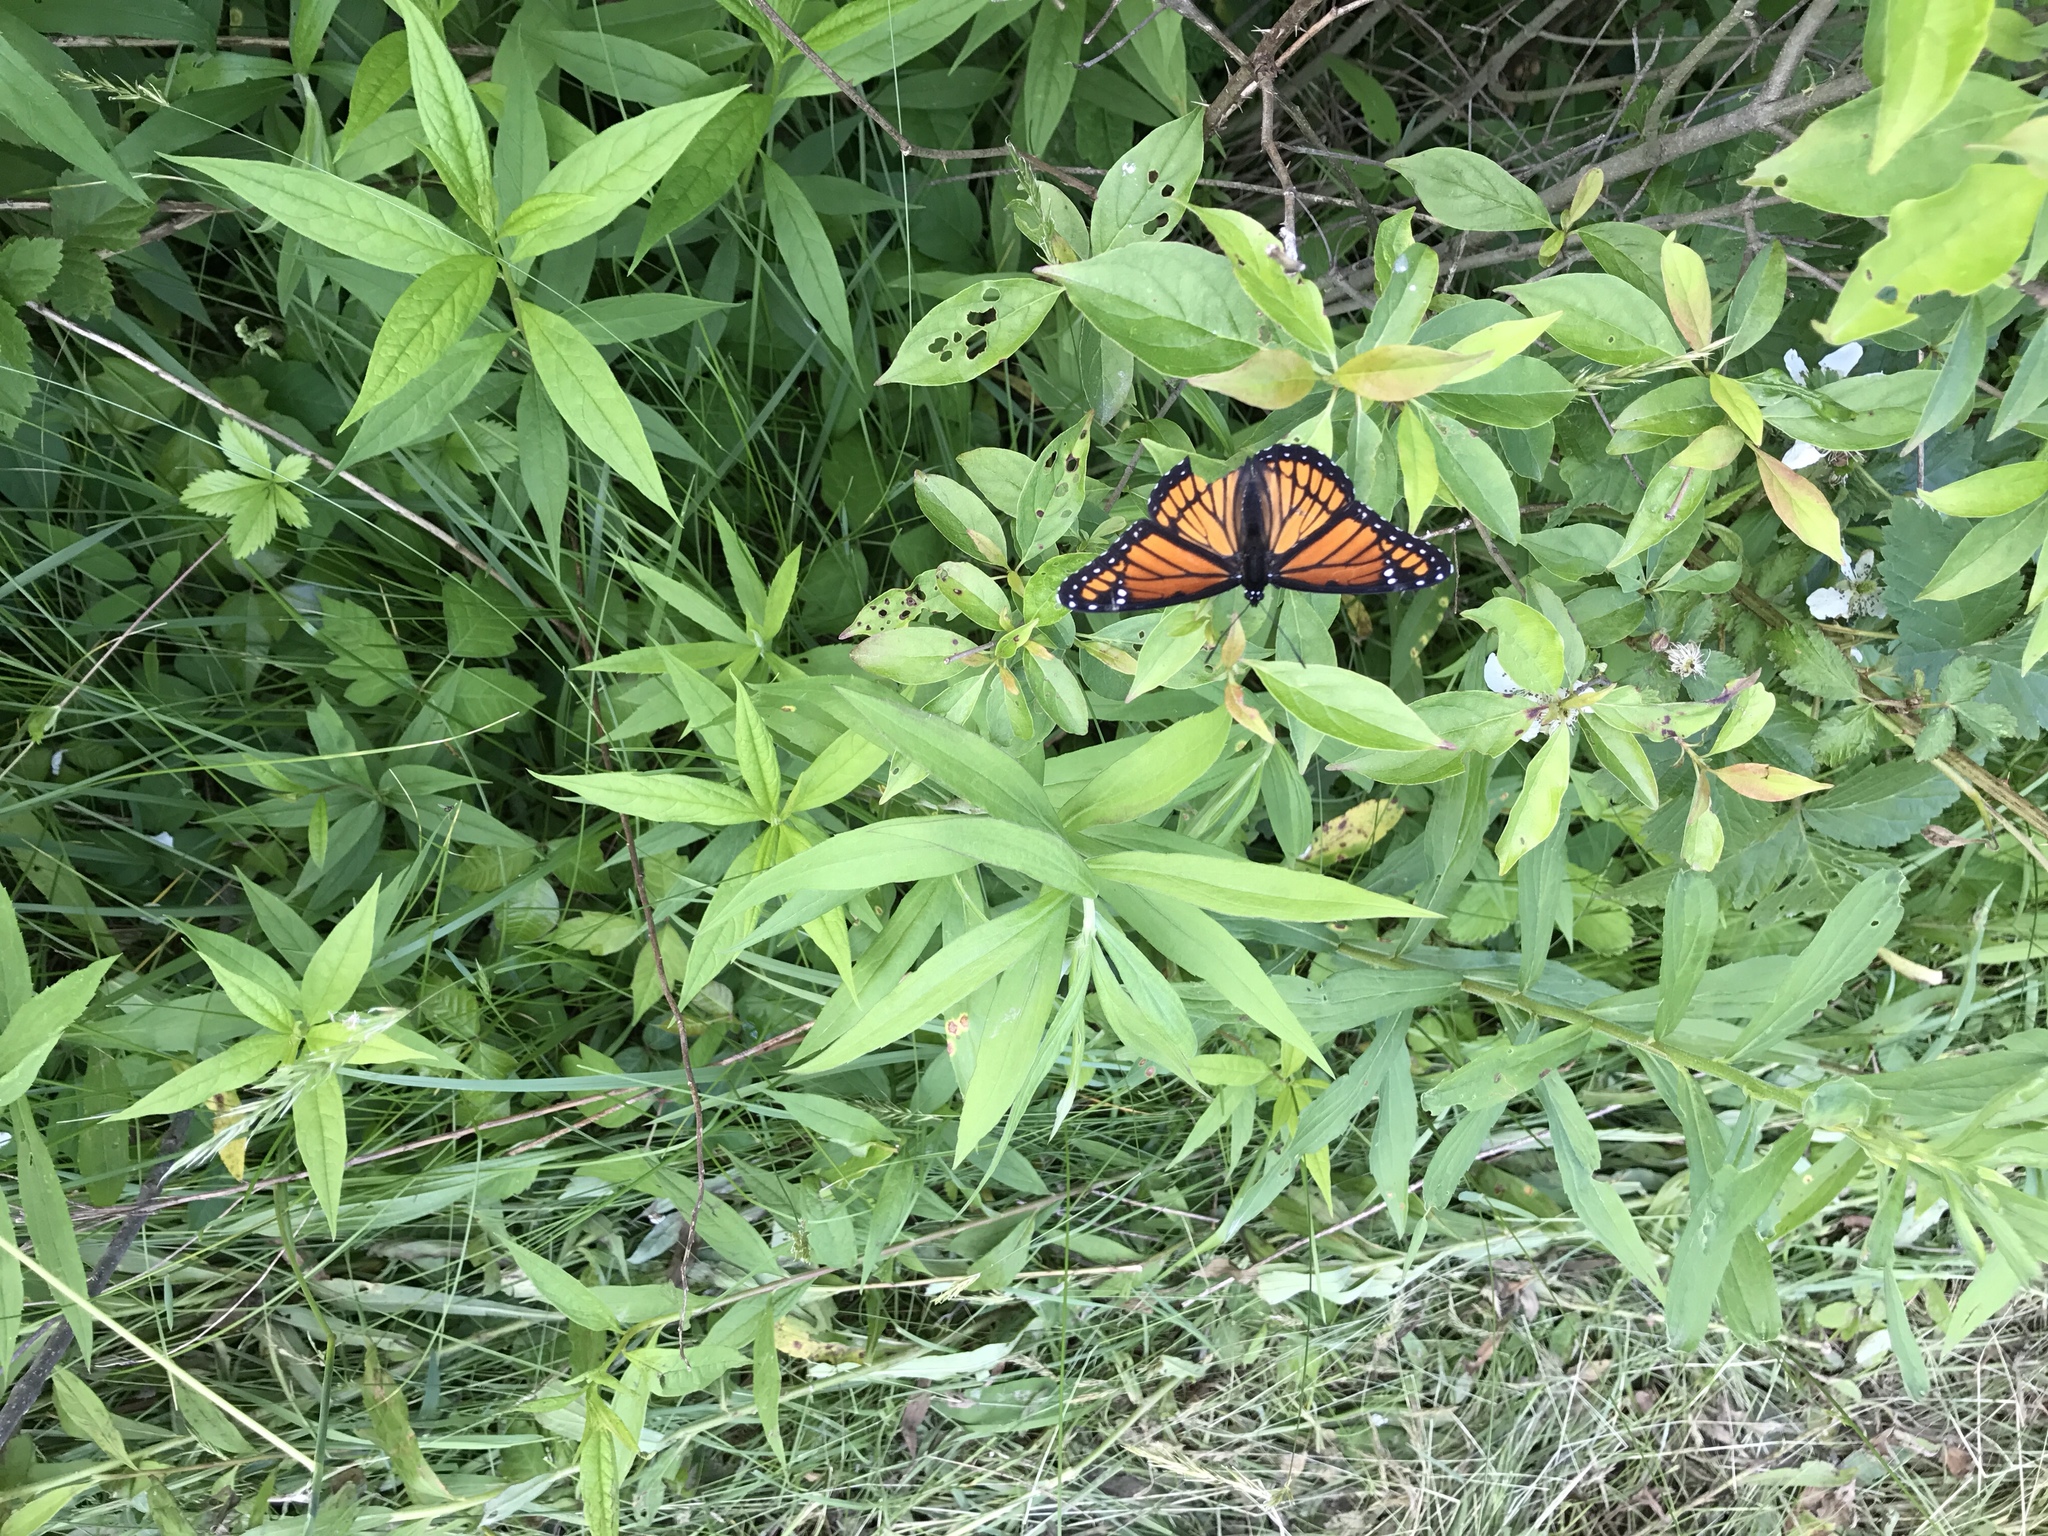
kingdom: Animalia
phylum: Arthropoda
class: Insecta
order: Lepidoptera
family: Nymphalidae
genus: Limenitis
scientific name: Limenitis archippus
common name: Viceroy
